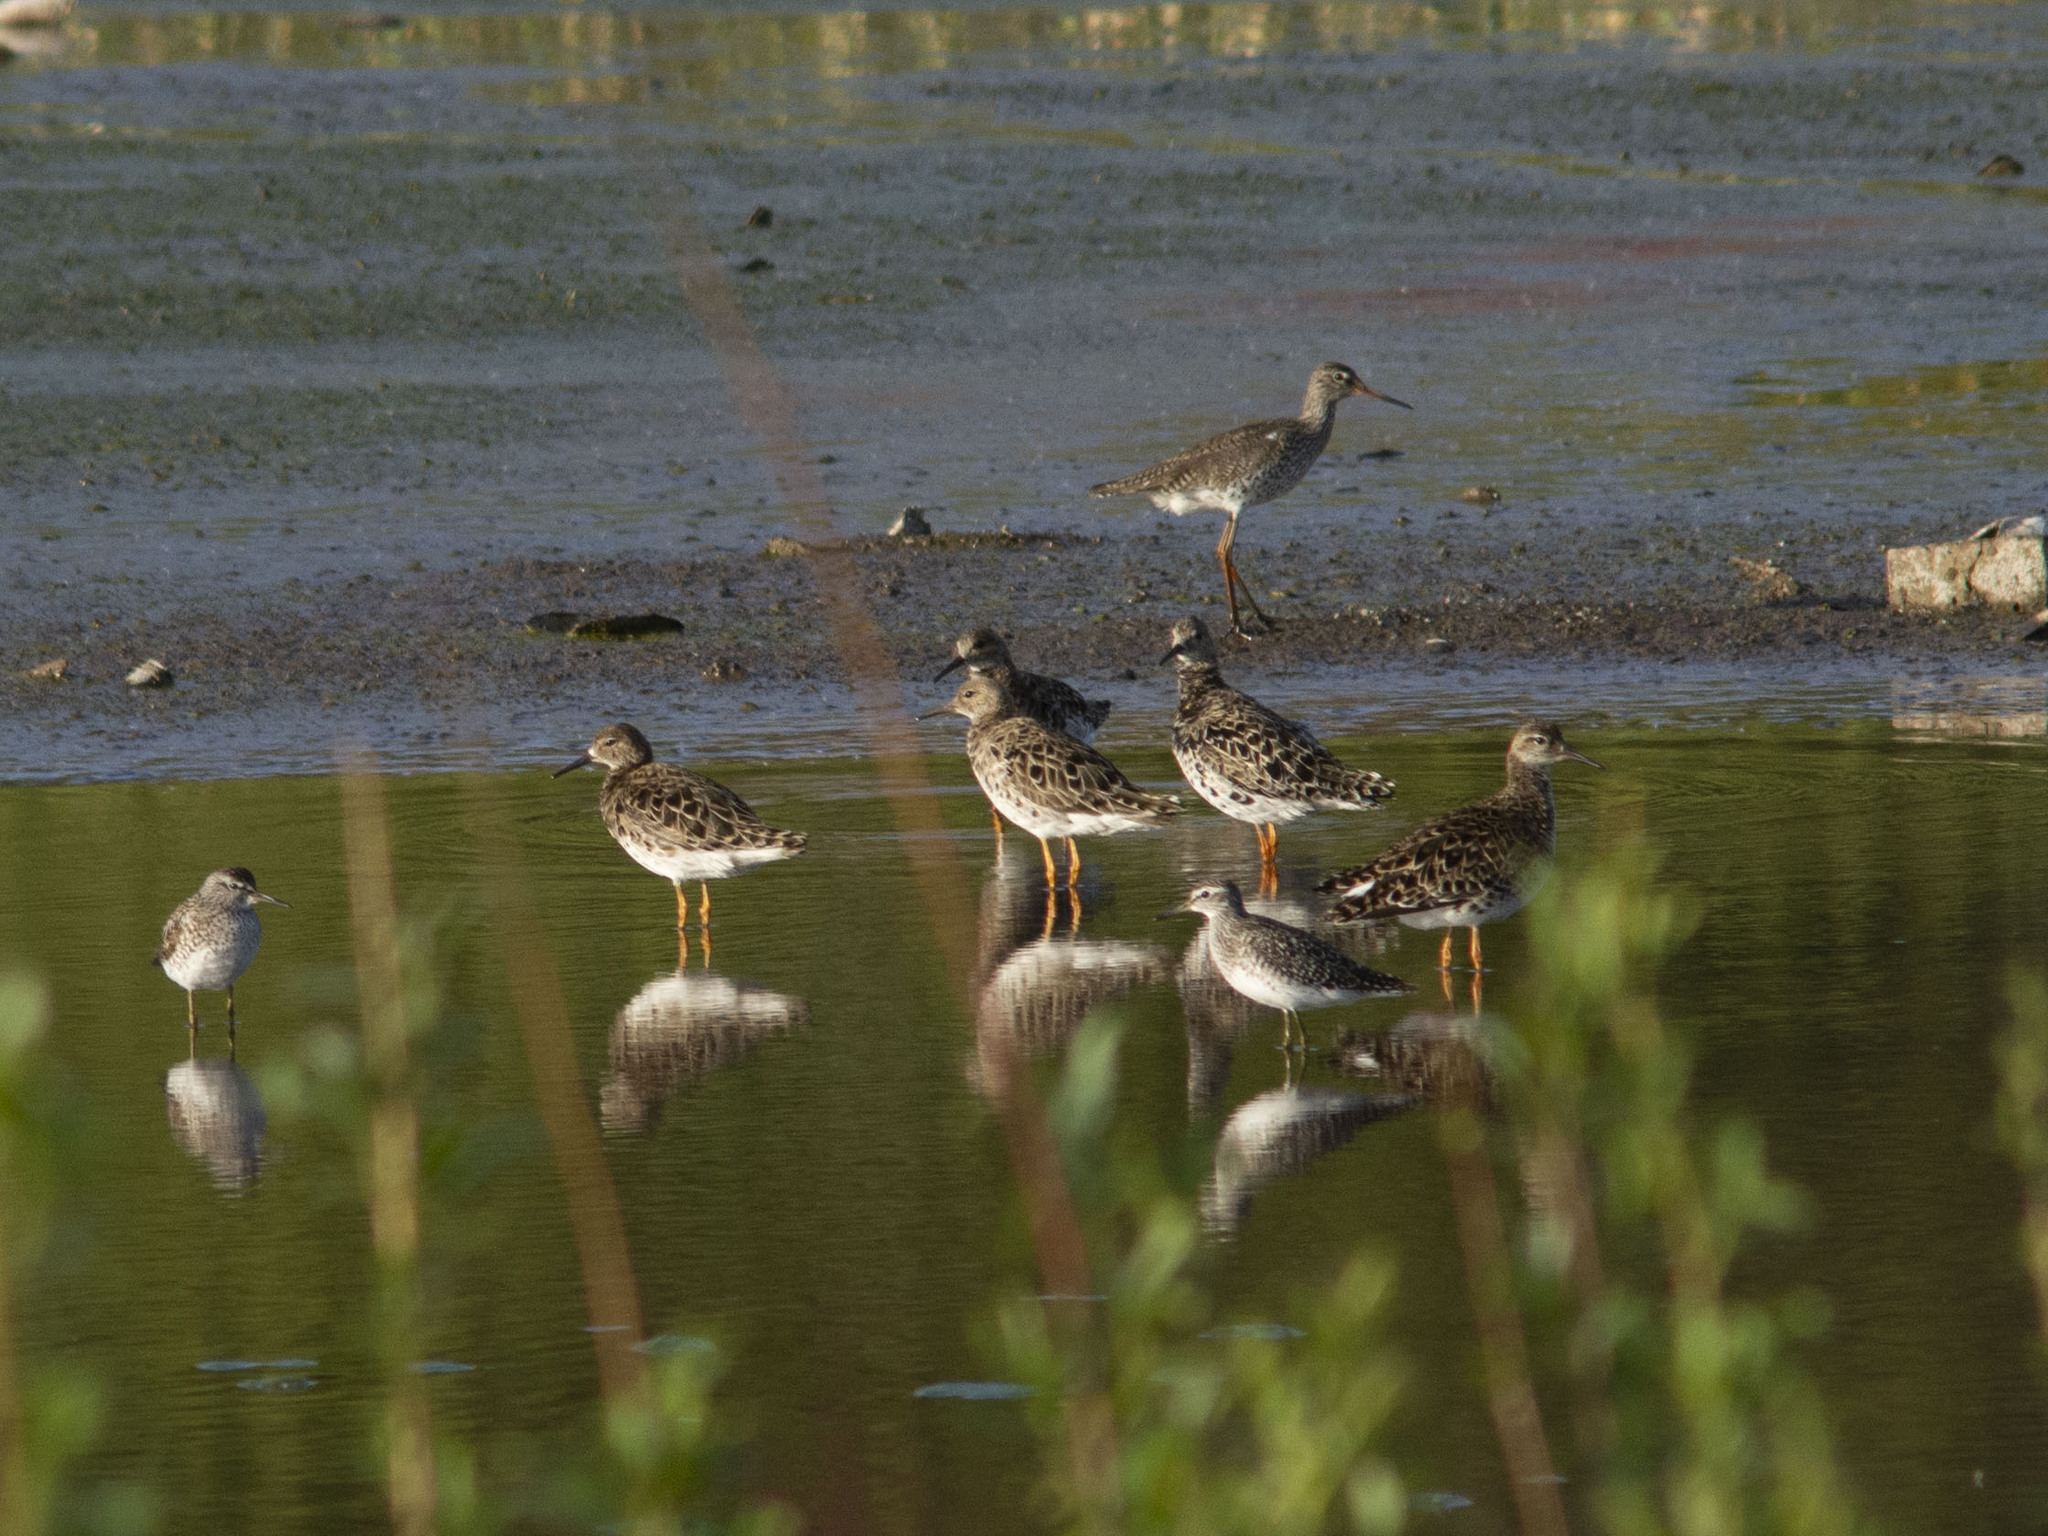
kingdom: Animalia
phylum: Chordata
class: Aves
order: Charadriiformes
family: Scolopacidae
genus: Calidris
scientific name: Calidris pugnax
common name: Ruff
